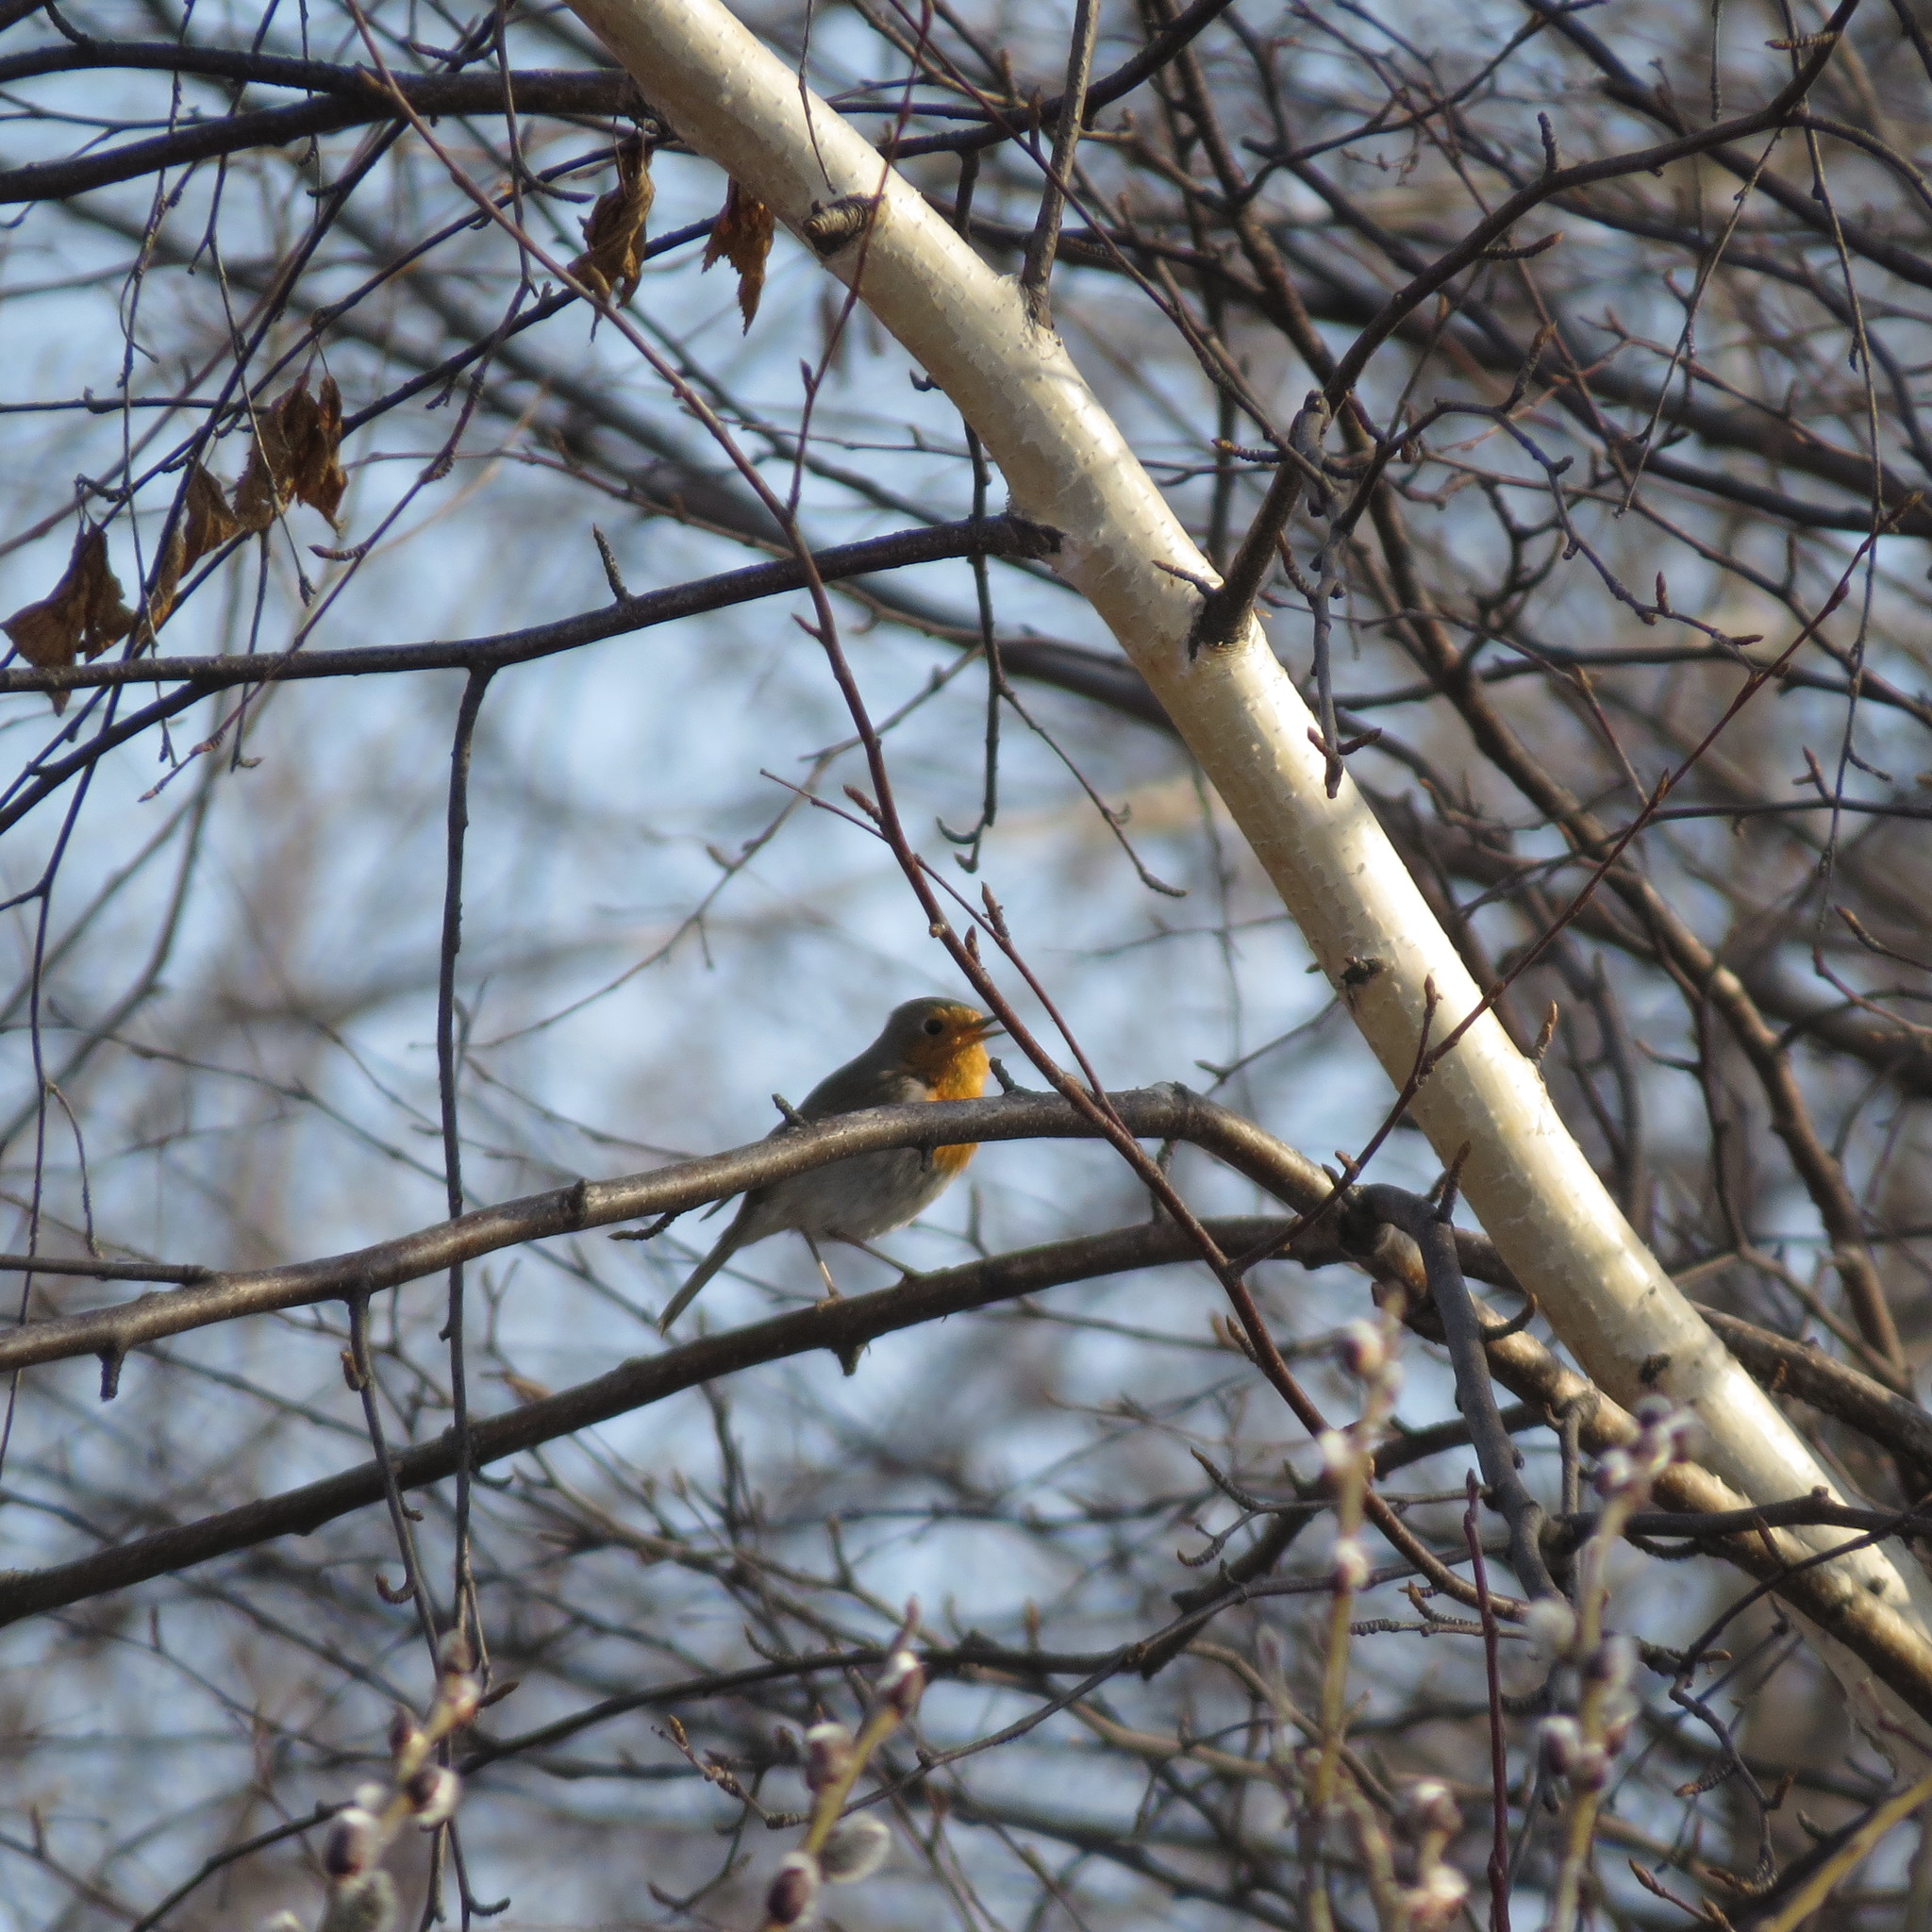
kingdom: Animalia
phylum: Chordata
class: Aves
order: Passeriformes
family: Muscicapidae
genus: Erithacus
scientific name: Erithacus rubecula
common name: European robin
